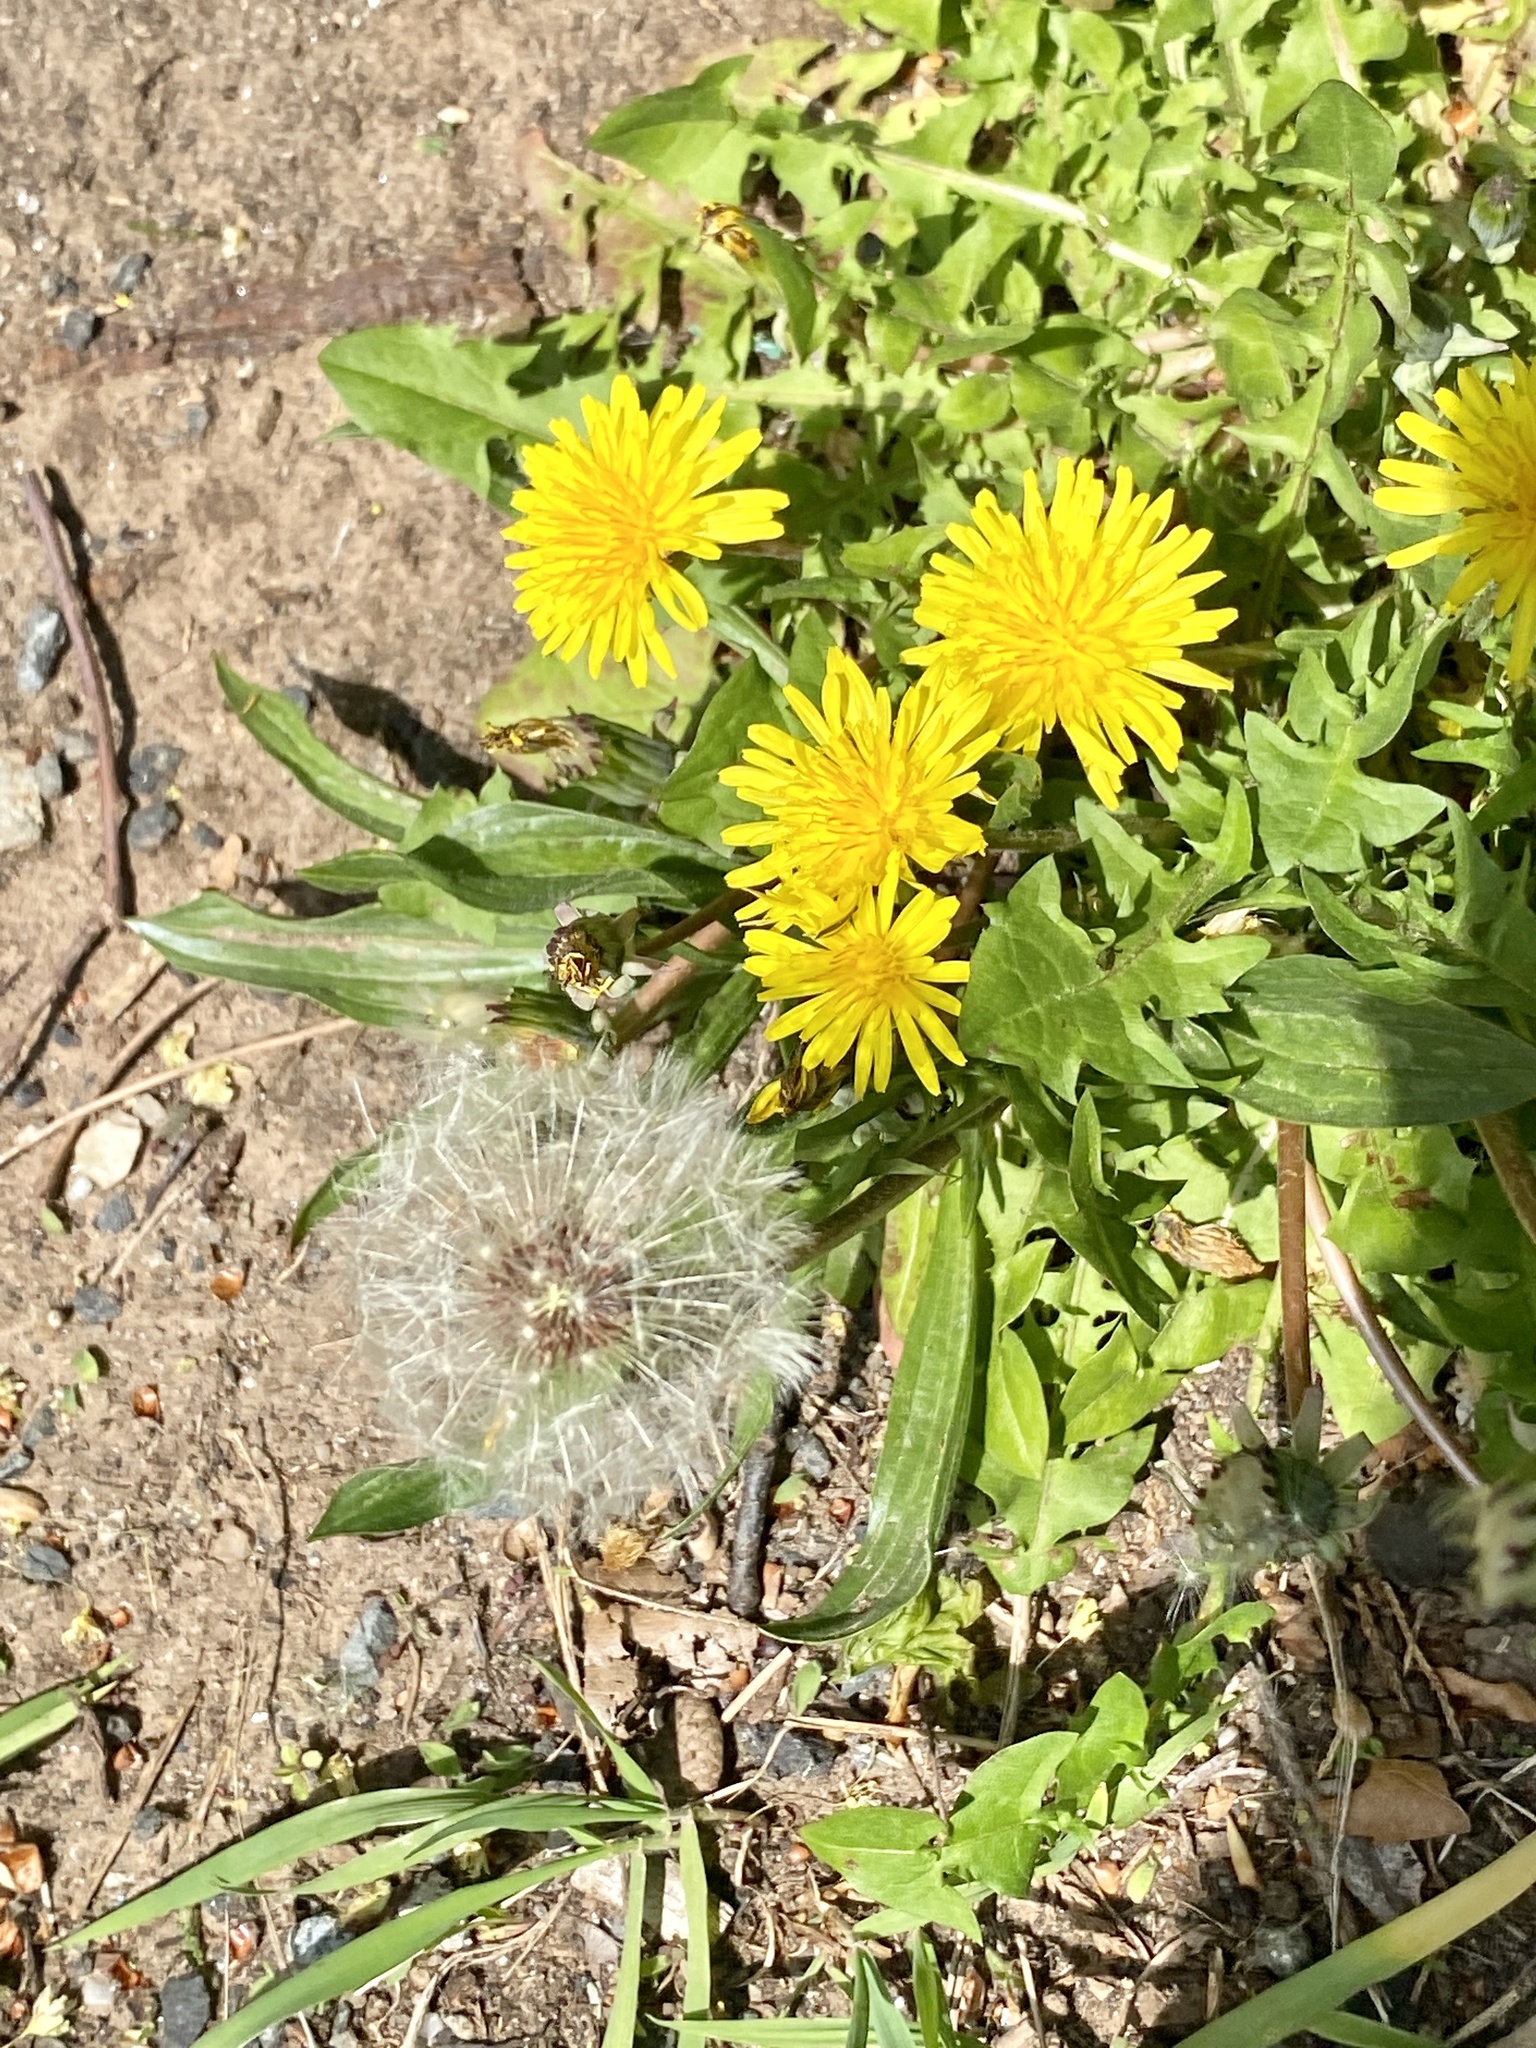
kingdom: Plantae
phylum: Tracheophyta
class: Magnoliopsida
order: Asterales
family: Asteraceae
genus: Taraxacum
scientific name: Taraxacum
